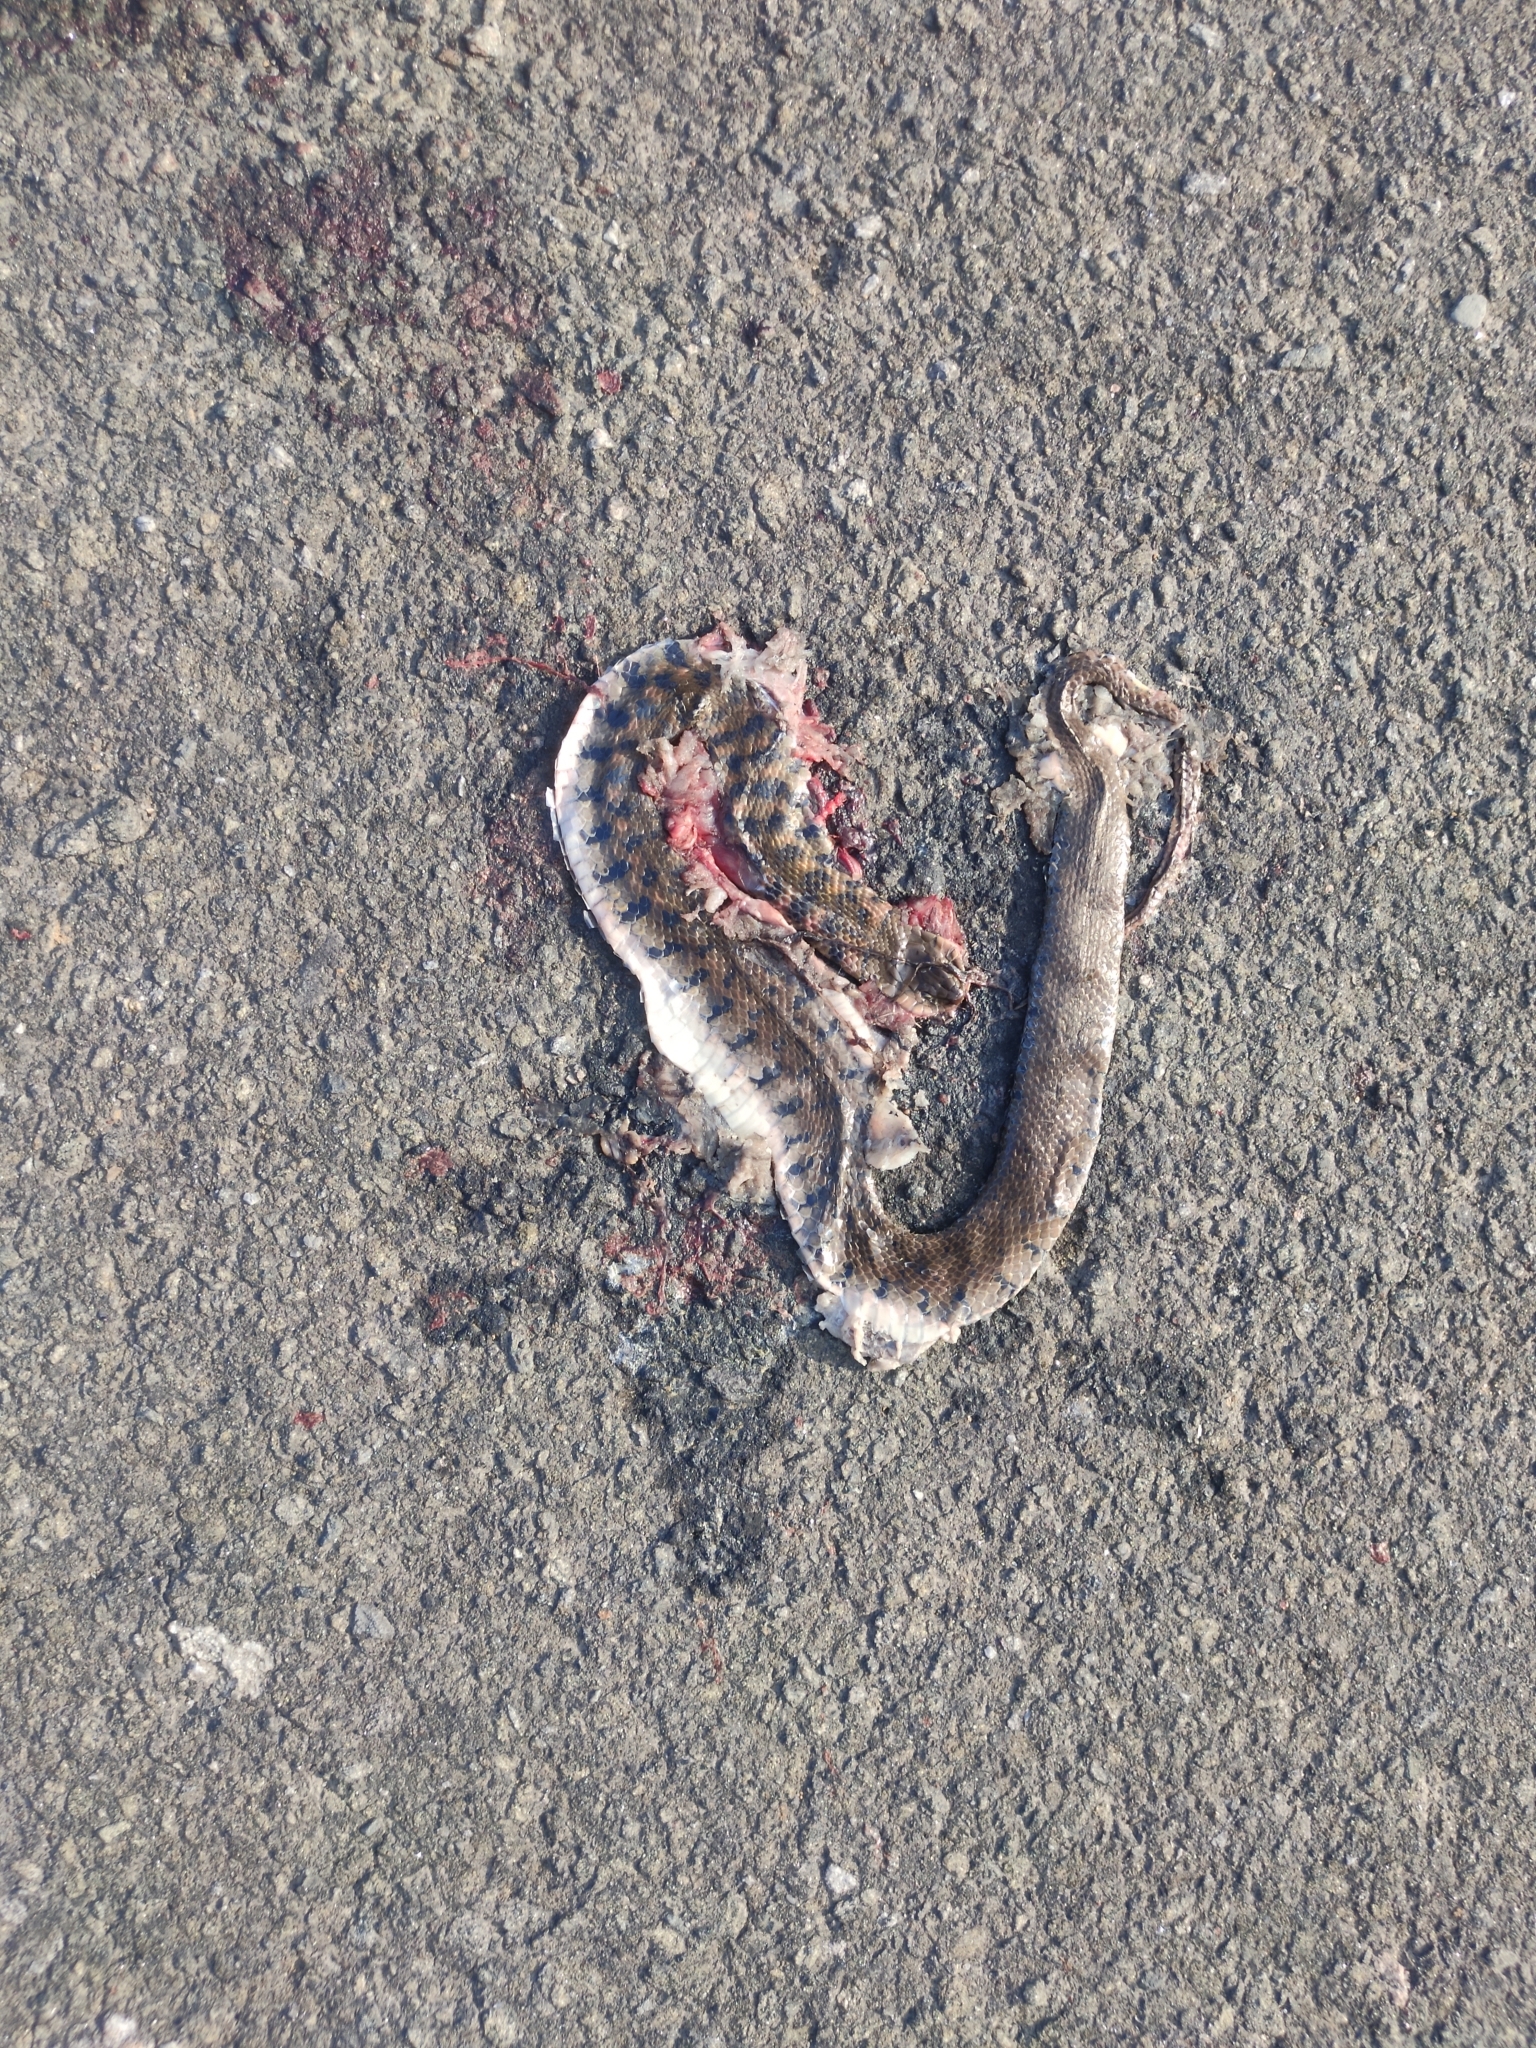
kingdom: Animalia
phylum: Chordata
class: Squamata
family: Colubridae
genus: Fowlea
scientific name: Fowlea piscator
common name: Asiatic water snake
